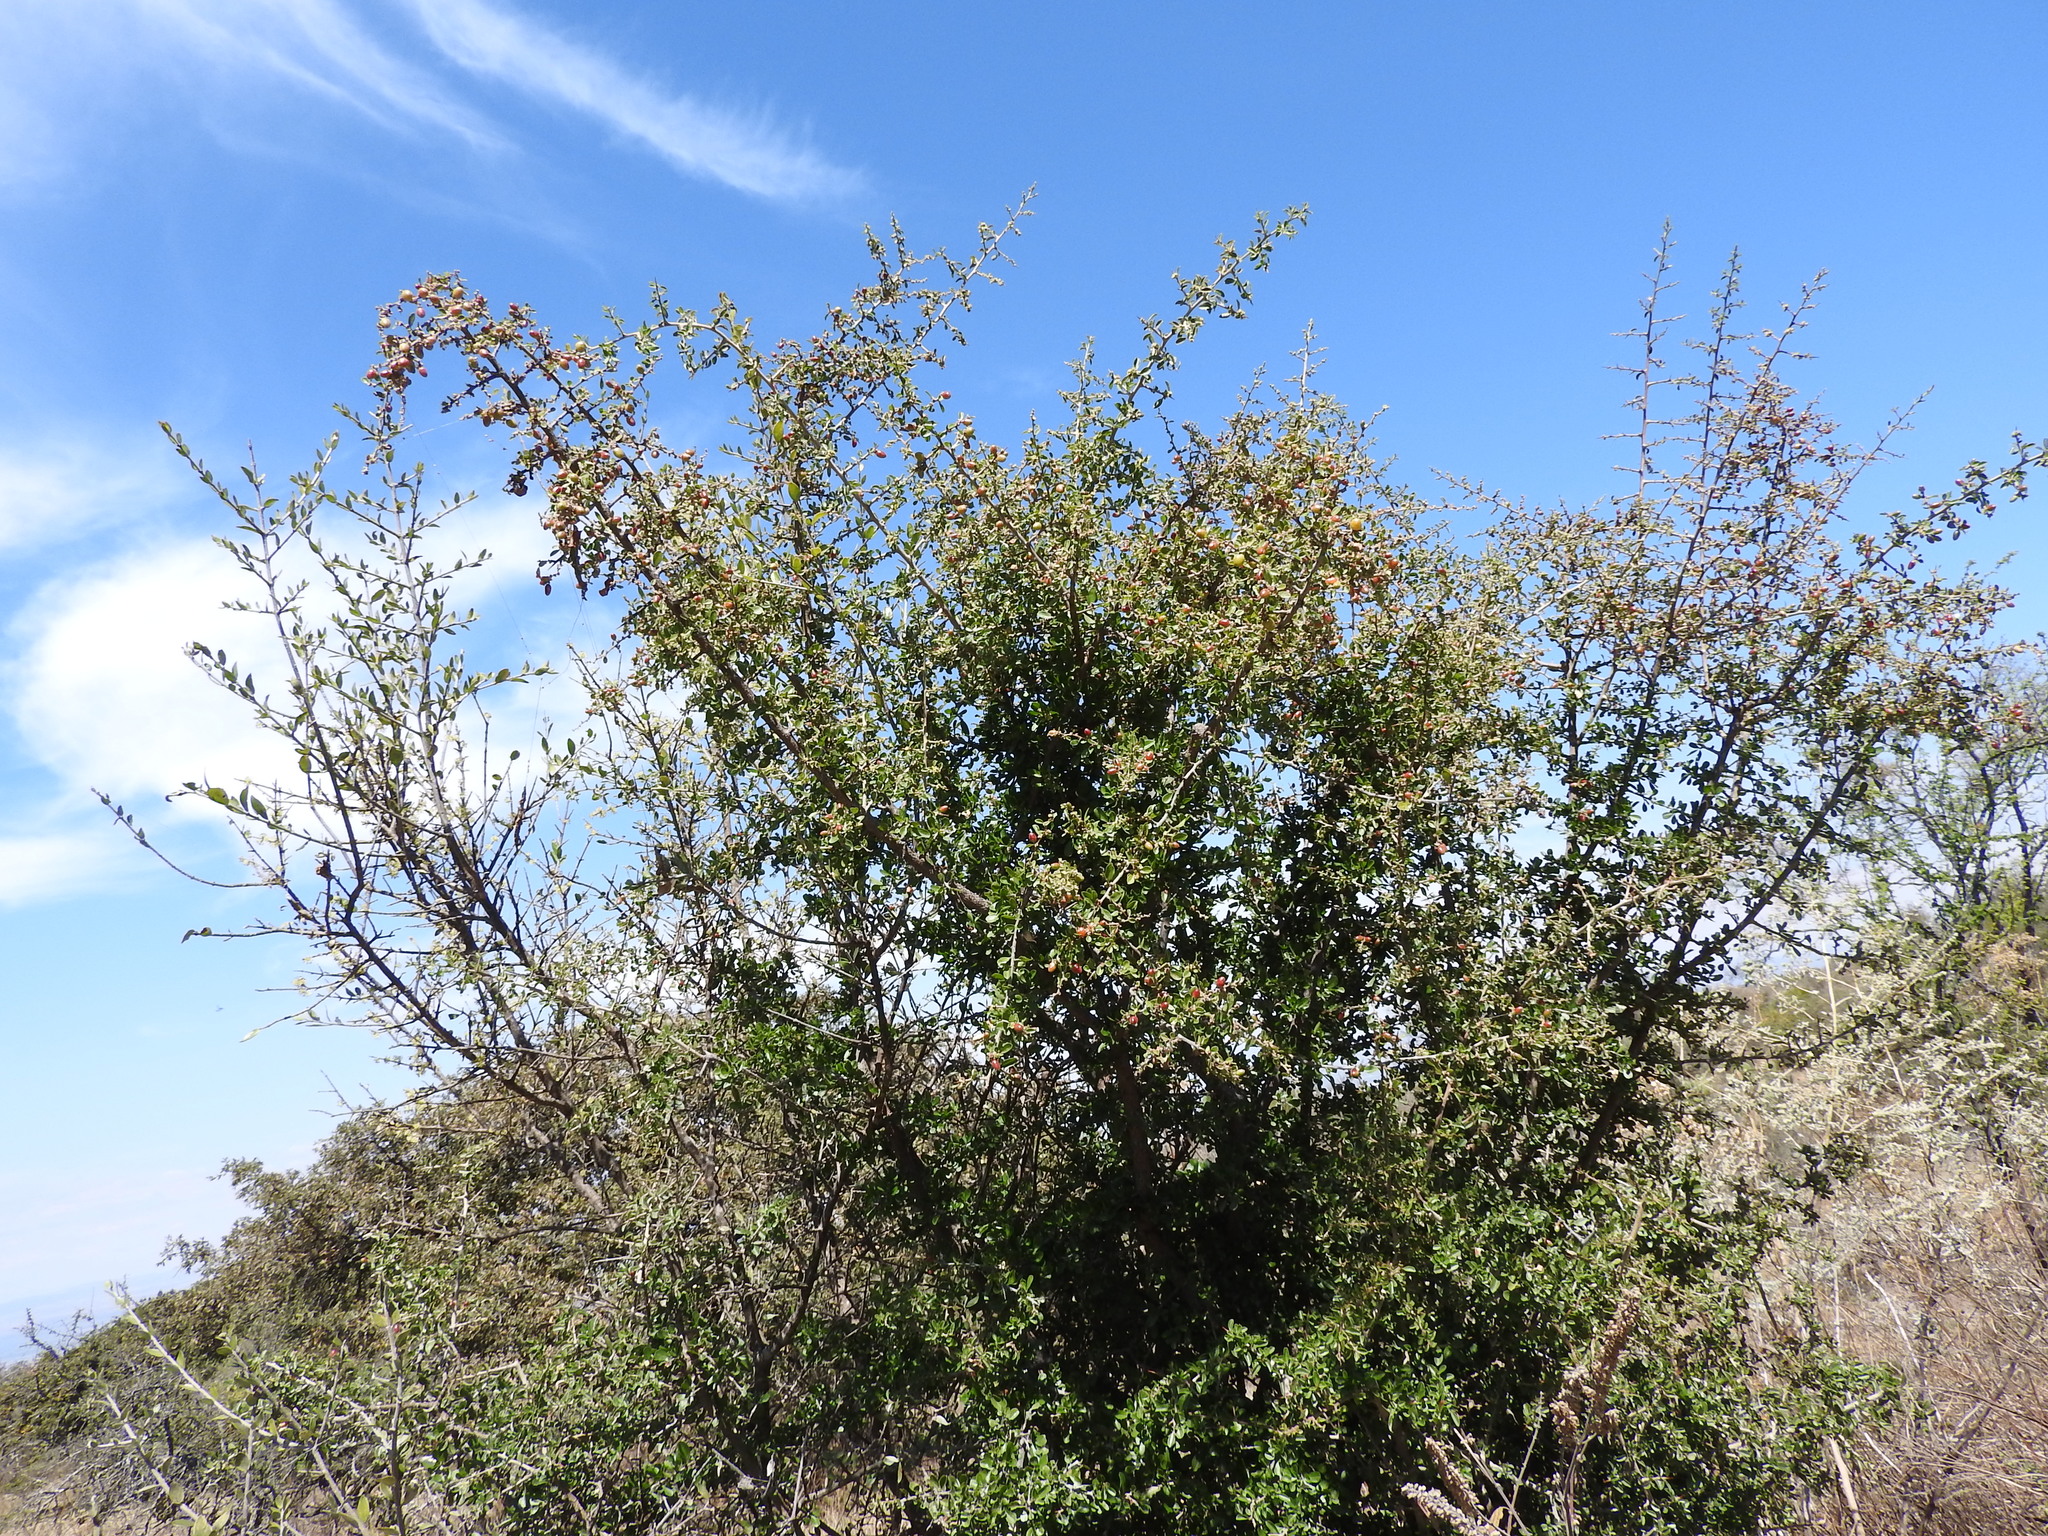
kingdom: Plantae
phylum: Tracheophyta
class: Magnoliopsida
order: Rosales
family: Rhamnaceae
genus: Condalia
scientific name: Condalia velutina
